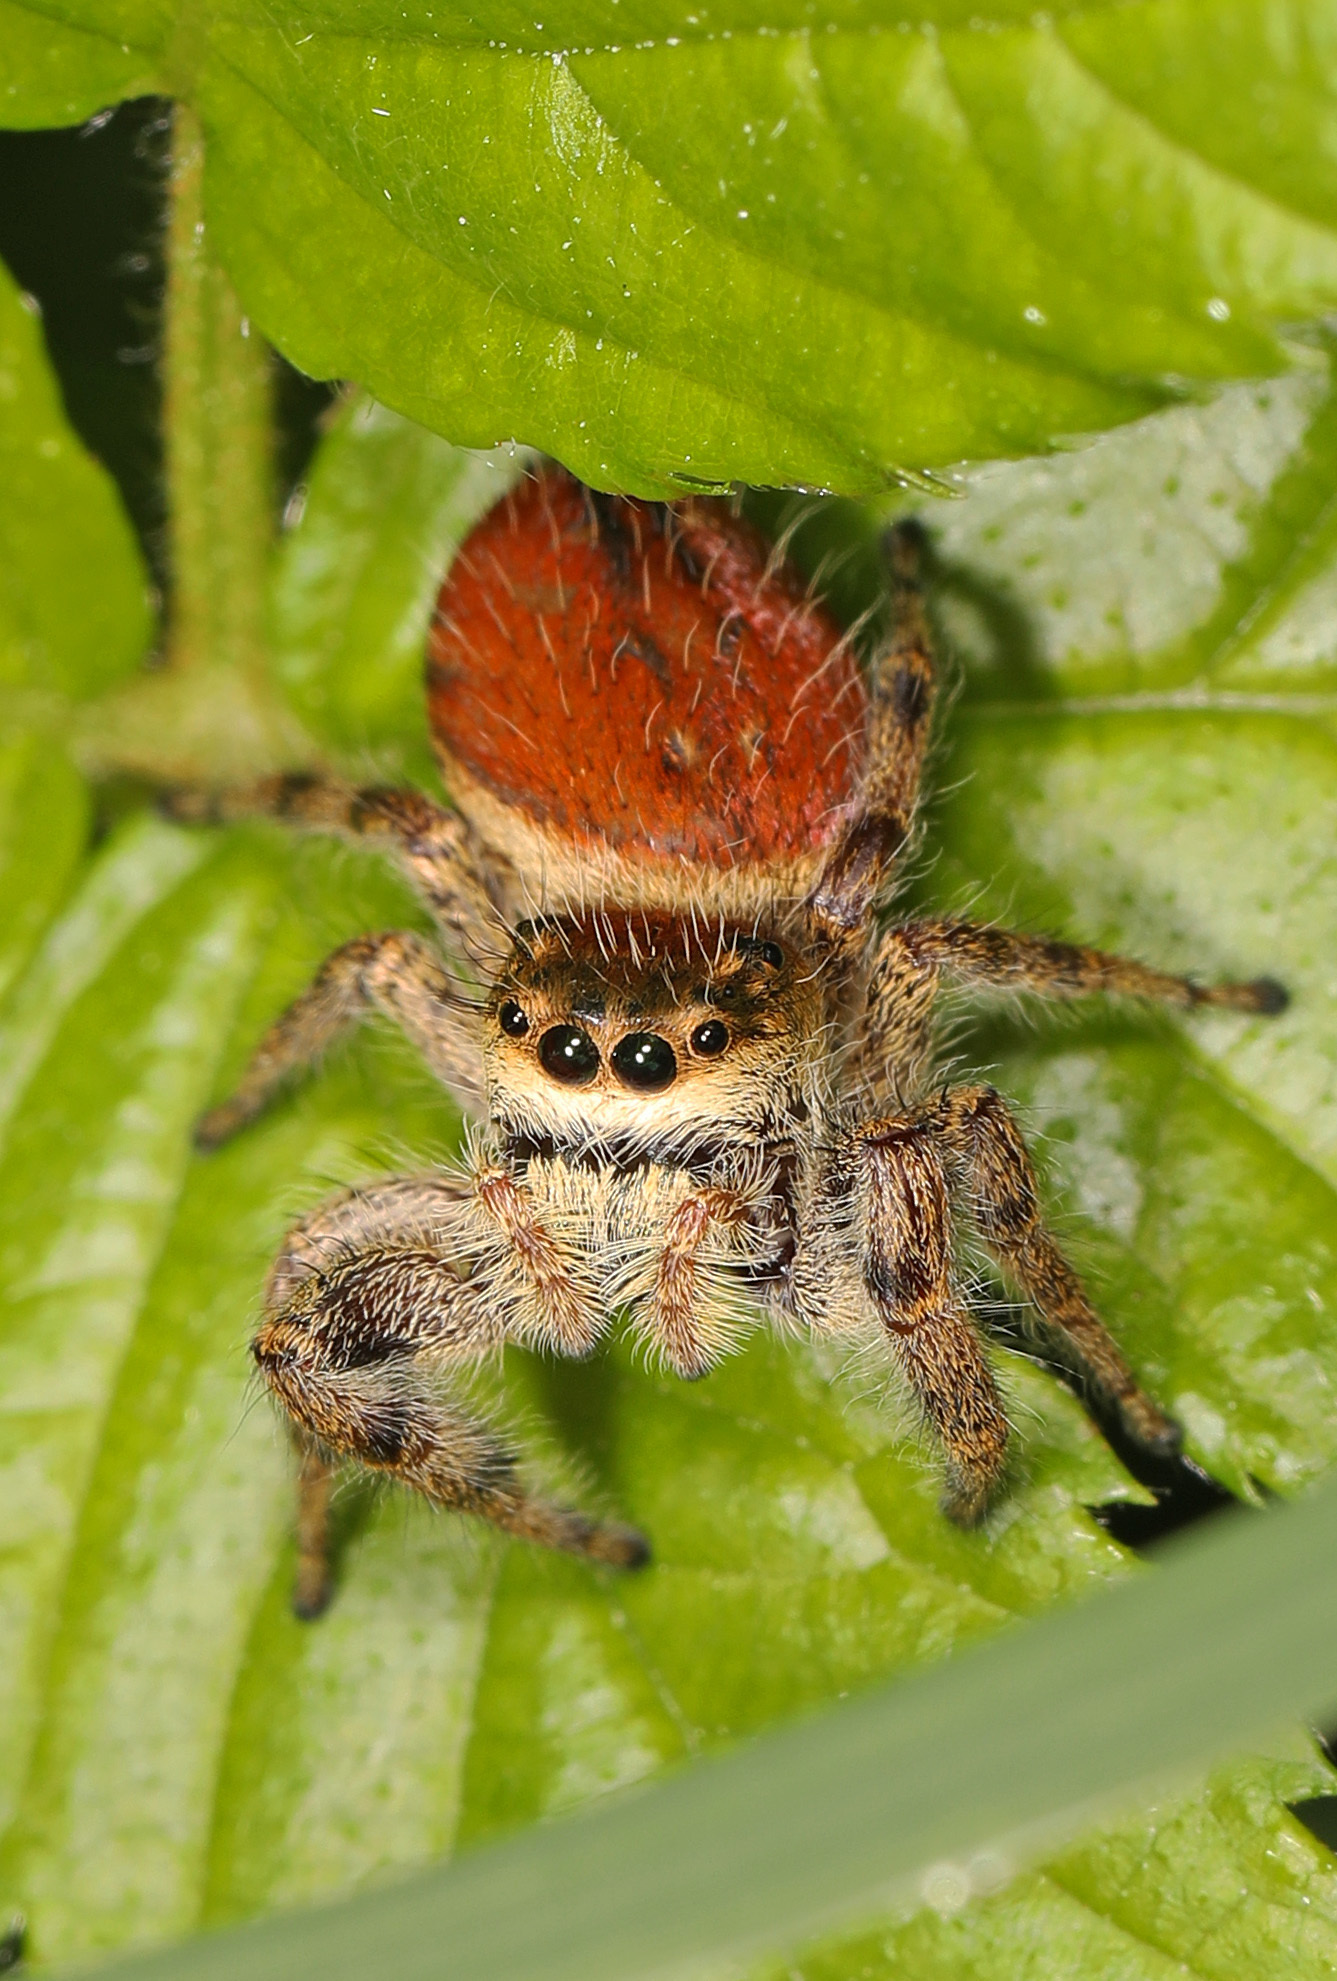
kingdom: Animalia
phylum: Arthropoda
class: Arachnida
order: Araneae
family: Salticidae
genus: Phidippus
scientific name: Phidippus clarus
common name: Brilliant jumping spider
